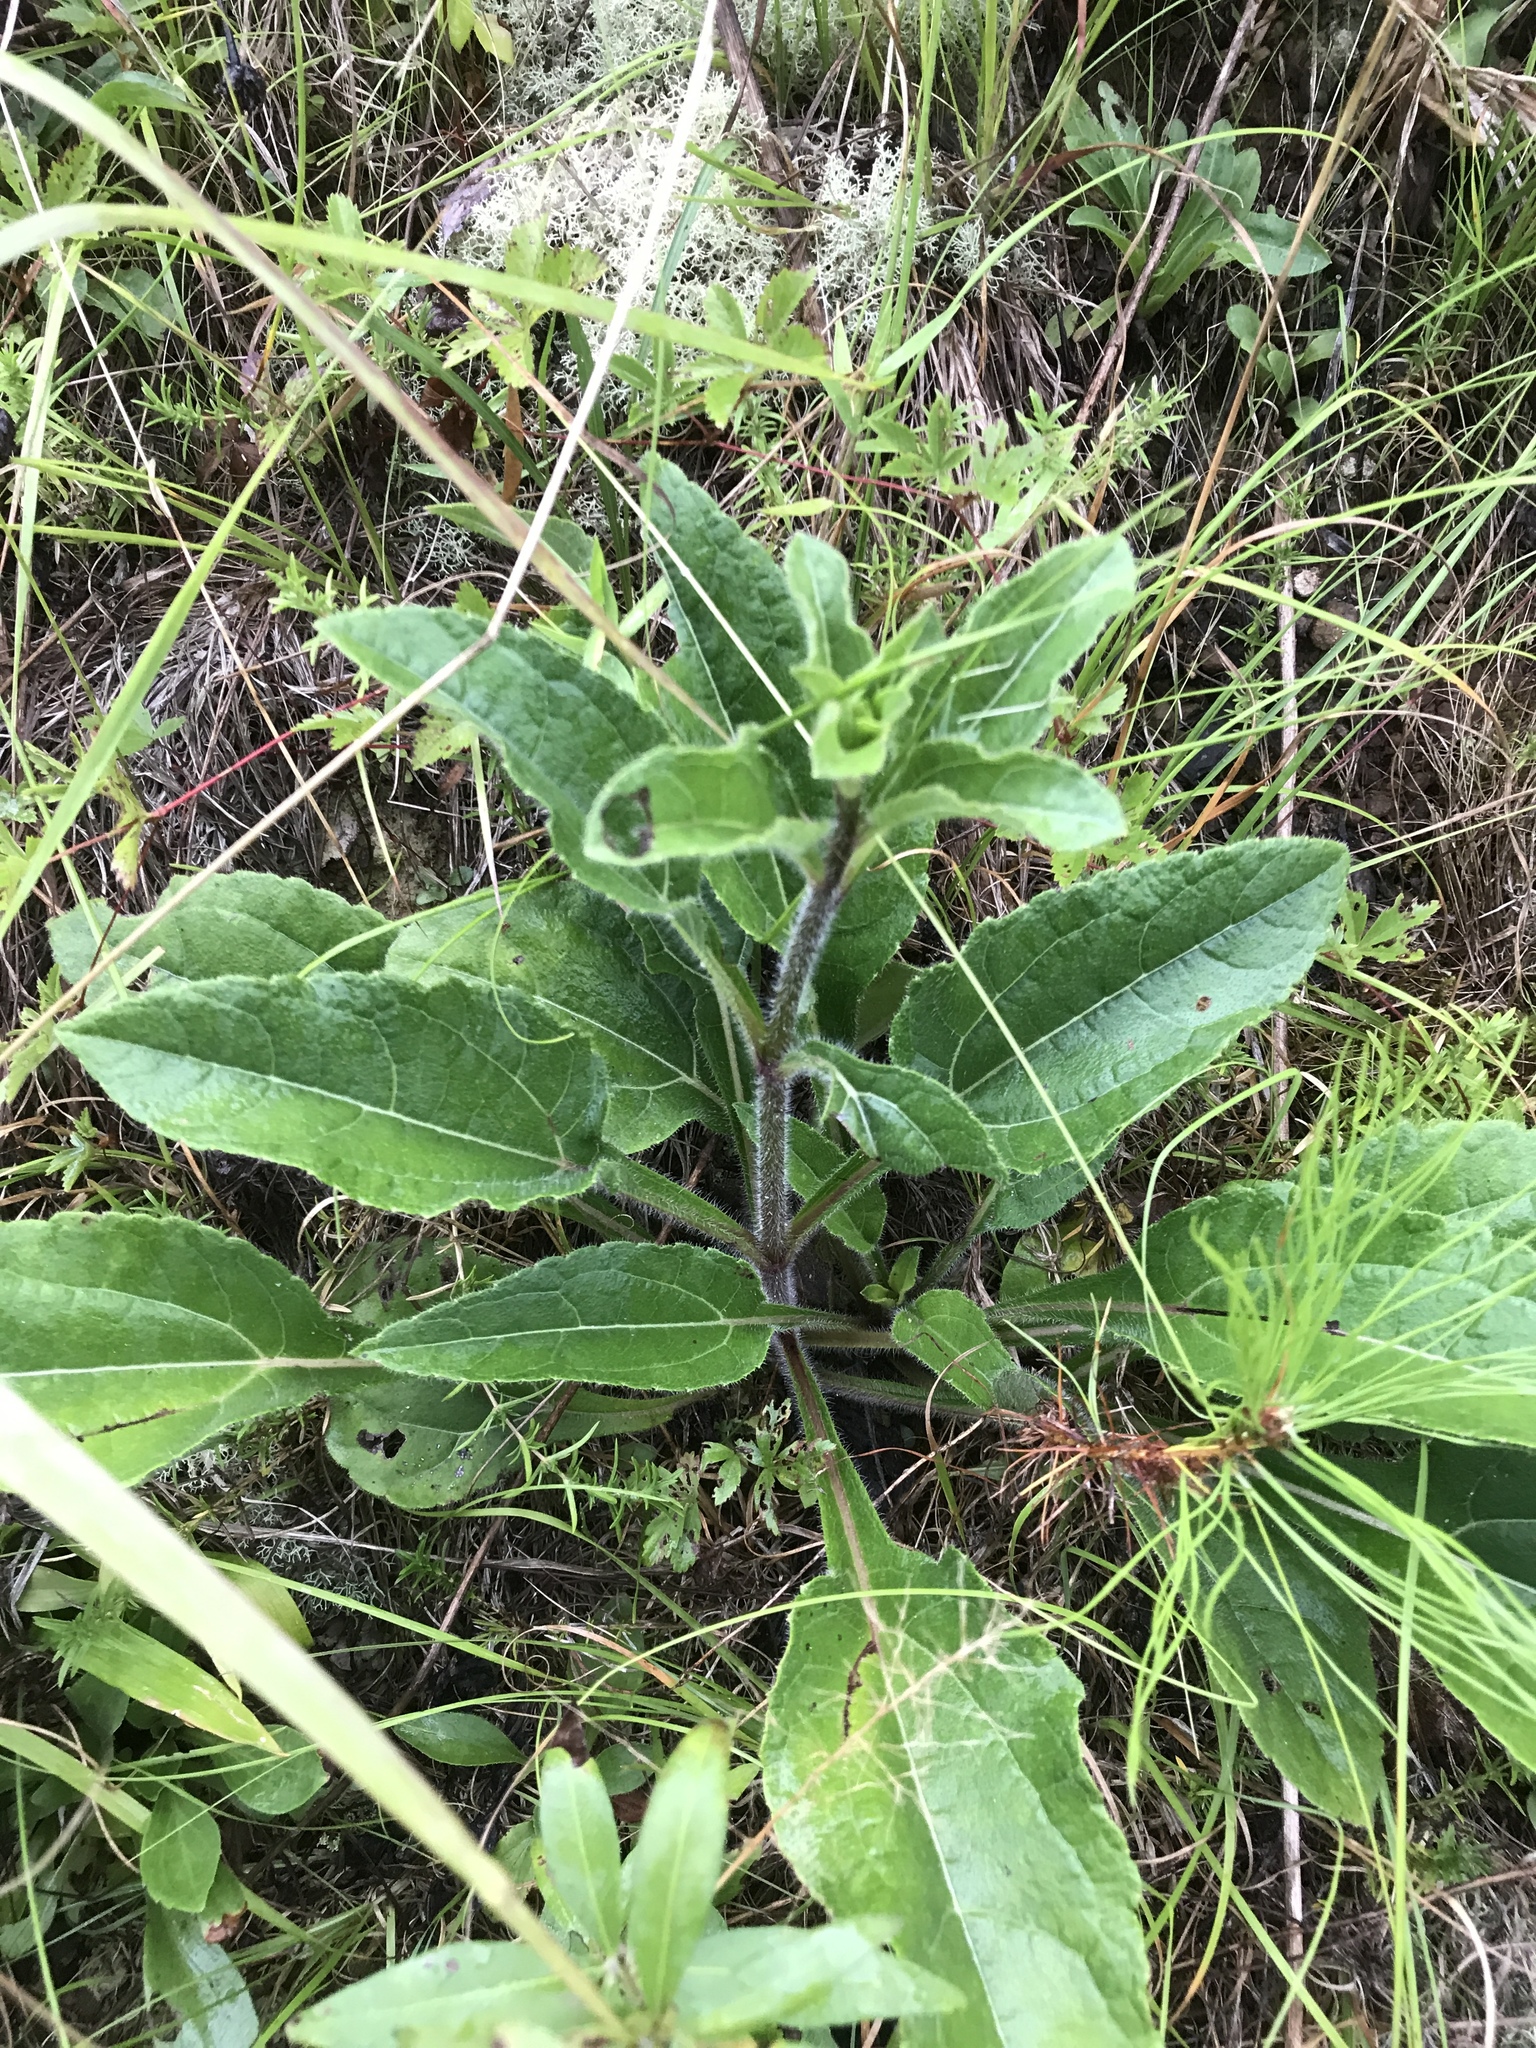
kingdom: Plantae
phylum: Tracheophyta
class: Magnoliopsida
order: Asterales
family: Asteraceae
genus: Helianthus
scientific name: Helianthus atrorubens
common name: Dark-eyed sunflower
